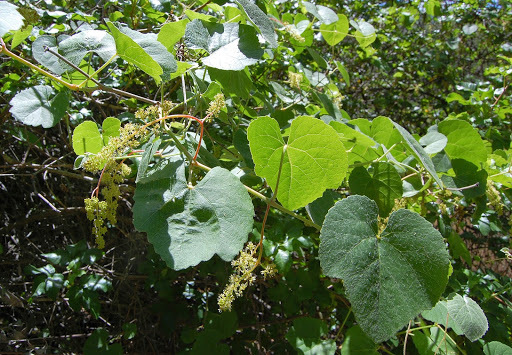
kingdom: Plantae
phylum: Tracheophyta
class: Magnoliopsida
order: Vitales
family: Vitaceae
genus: Vitis
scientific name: Vitis californica
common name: California wild grape
